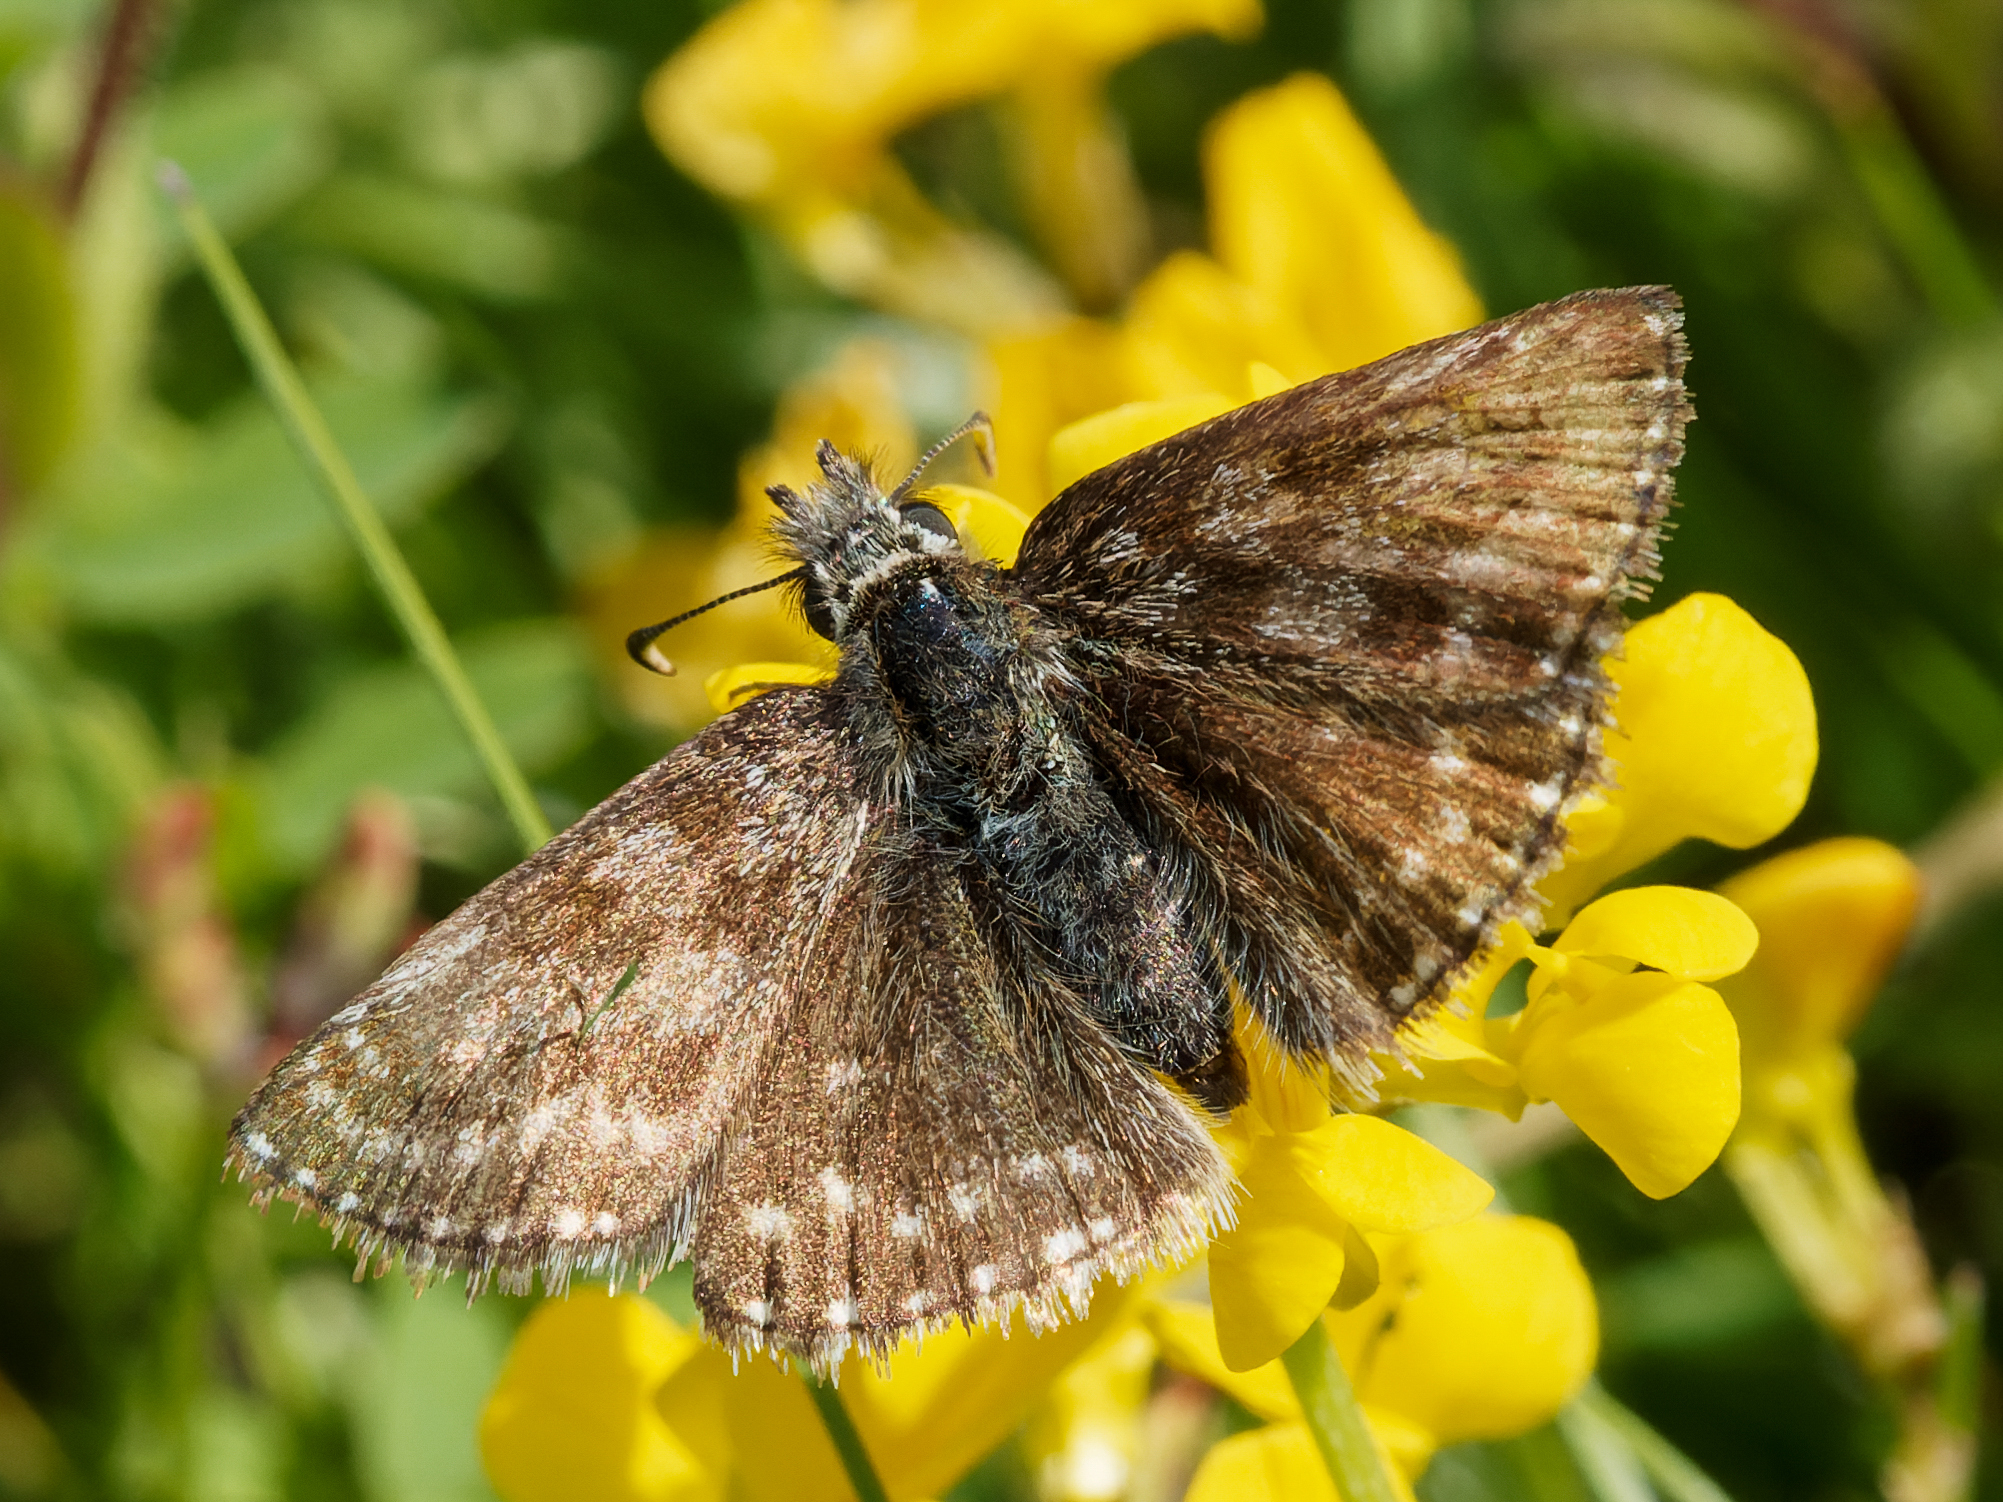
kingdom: Animalia
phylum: Arthropoda
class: Insecta
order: Lepidoptera
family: Hesperiidae
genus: Erynnis
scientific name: Erynnis tages
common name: Dingy skipper
